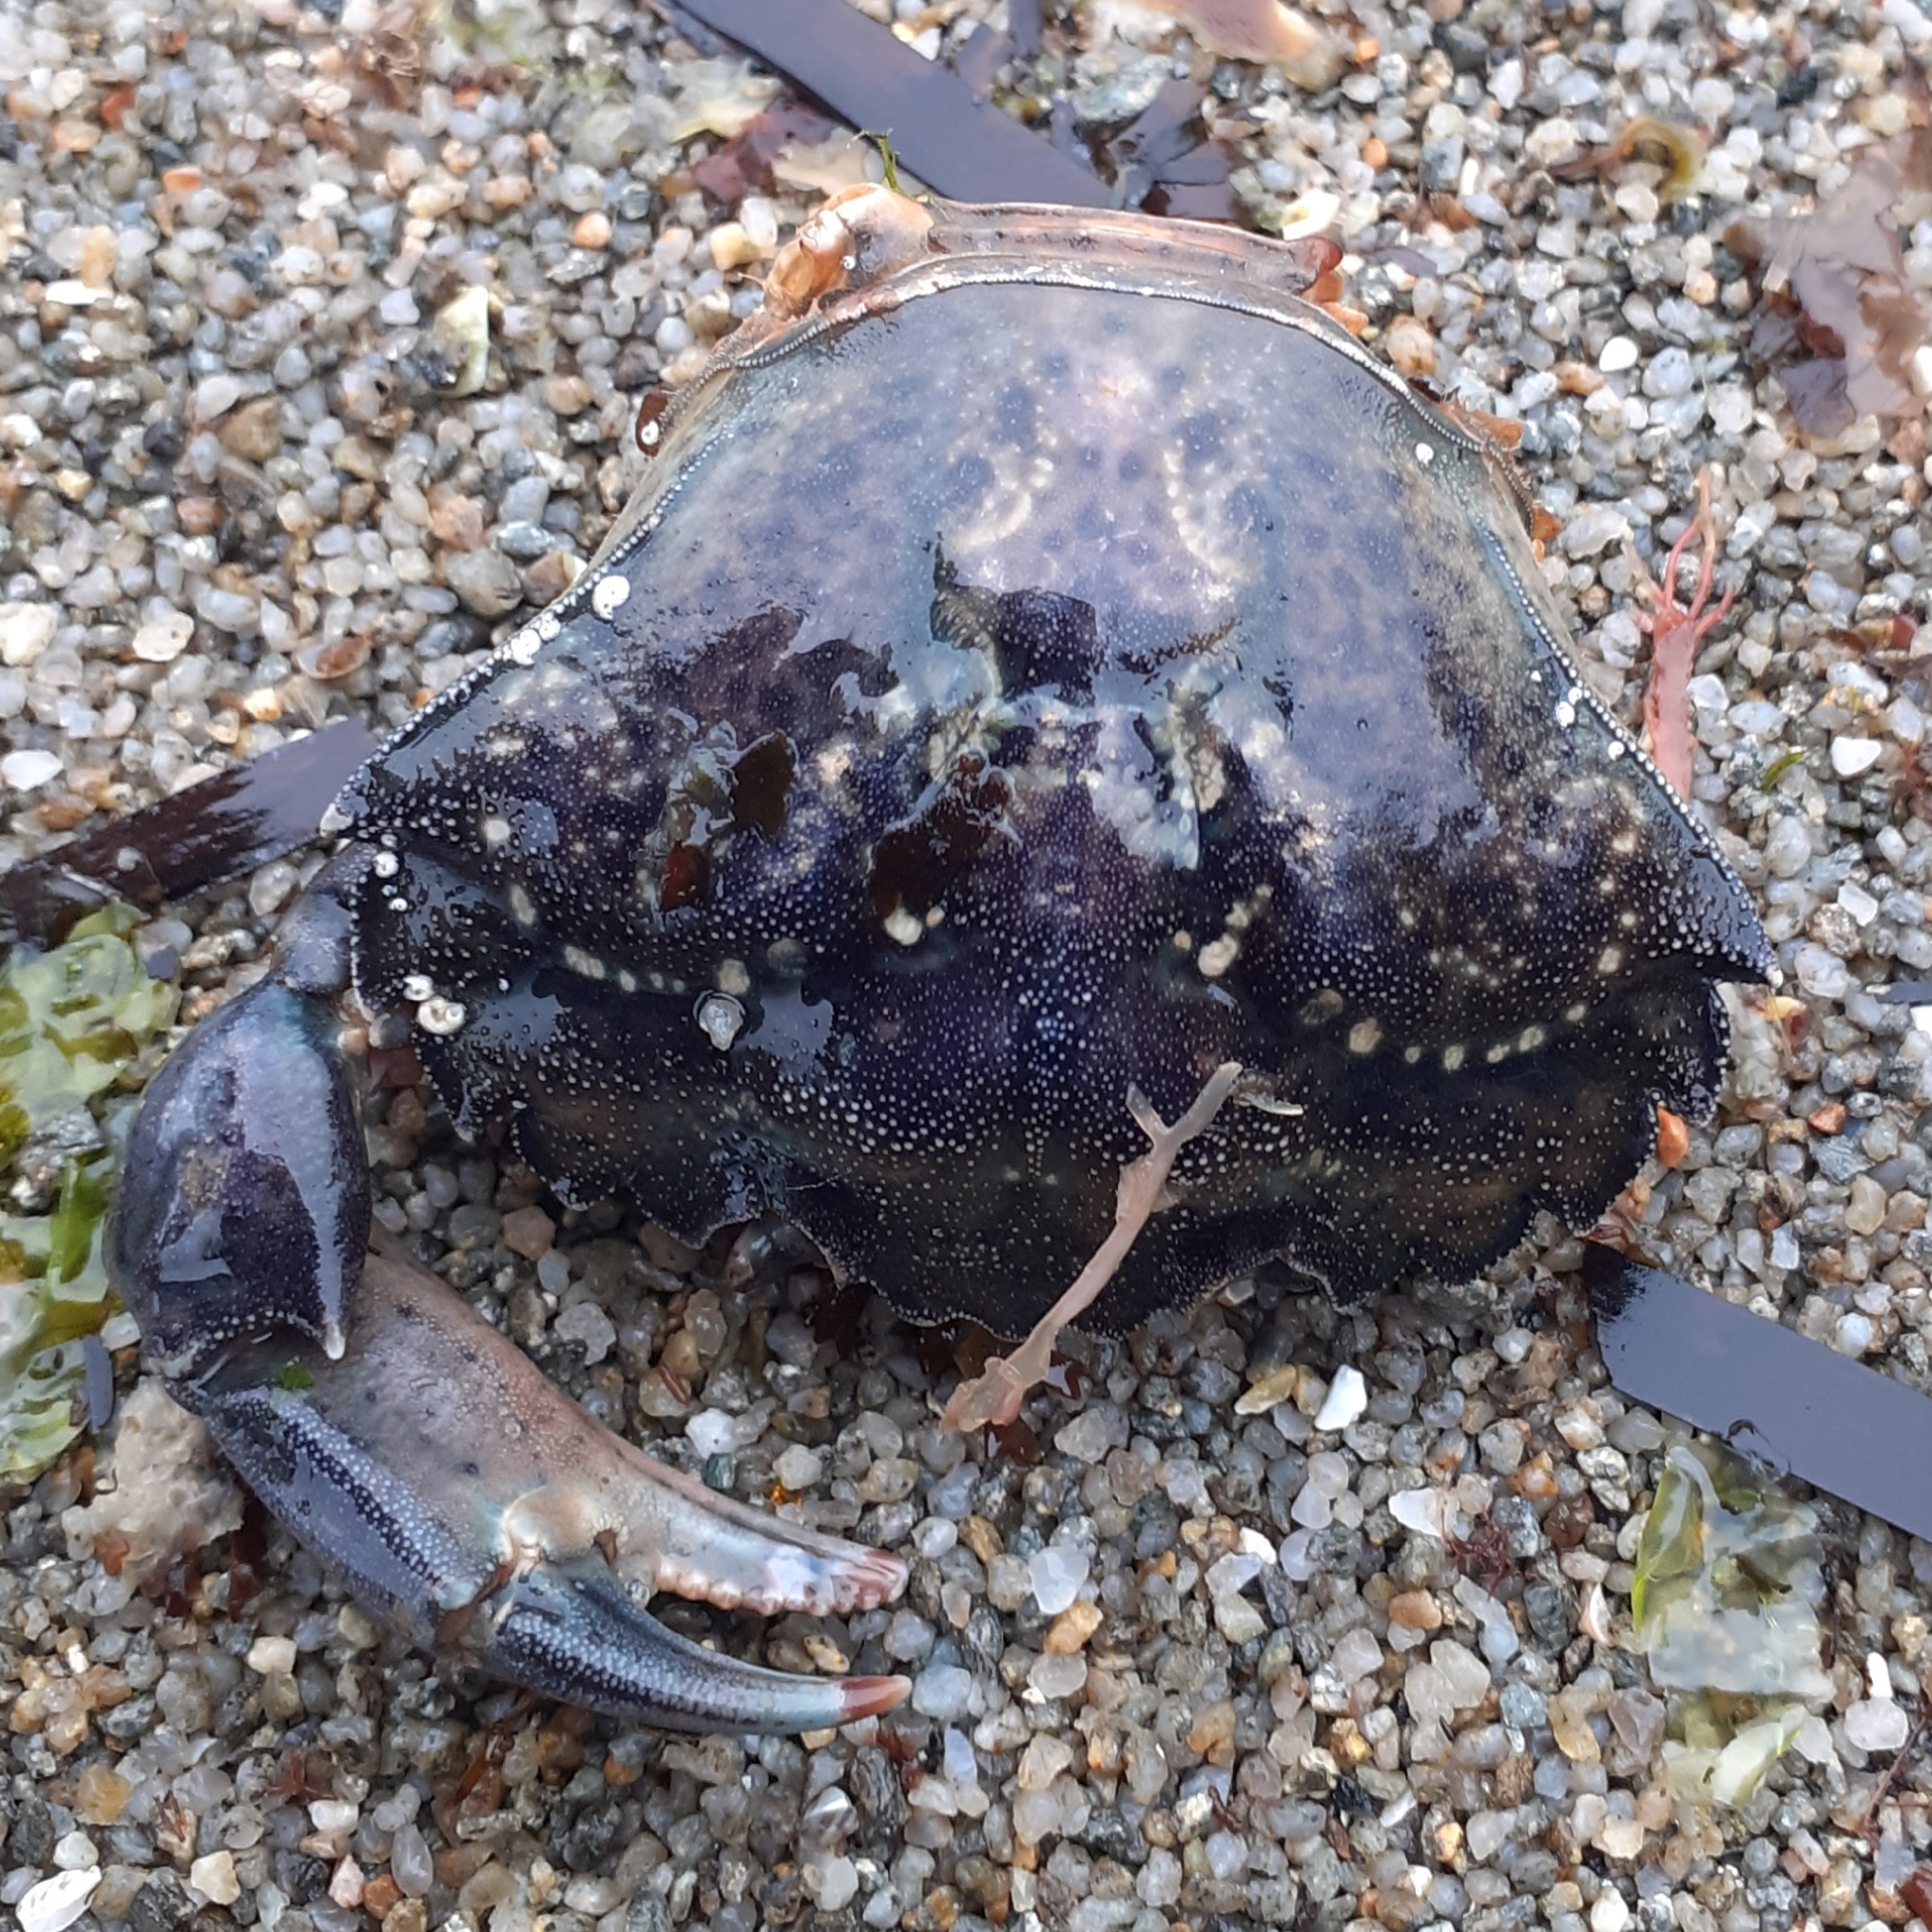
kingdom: Animalia
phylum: Arthropoda
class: Malacostraca
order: Decapoda
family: Carcinidae
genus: Carcinus
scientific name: Carcinus maenas
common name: European green crab
